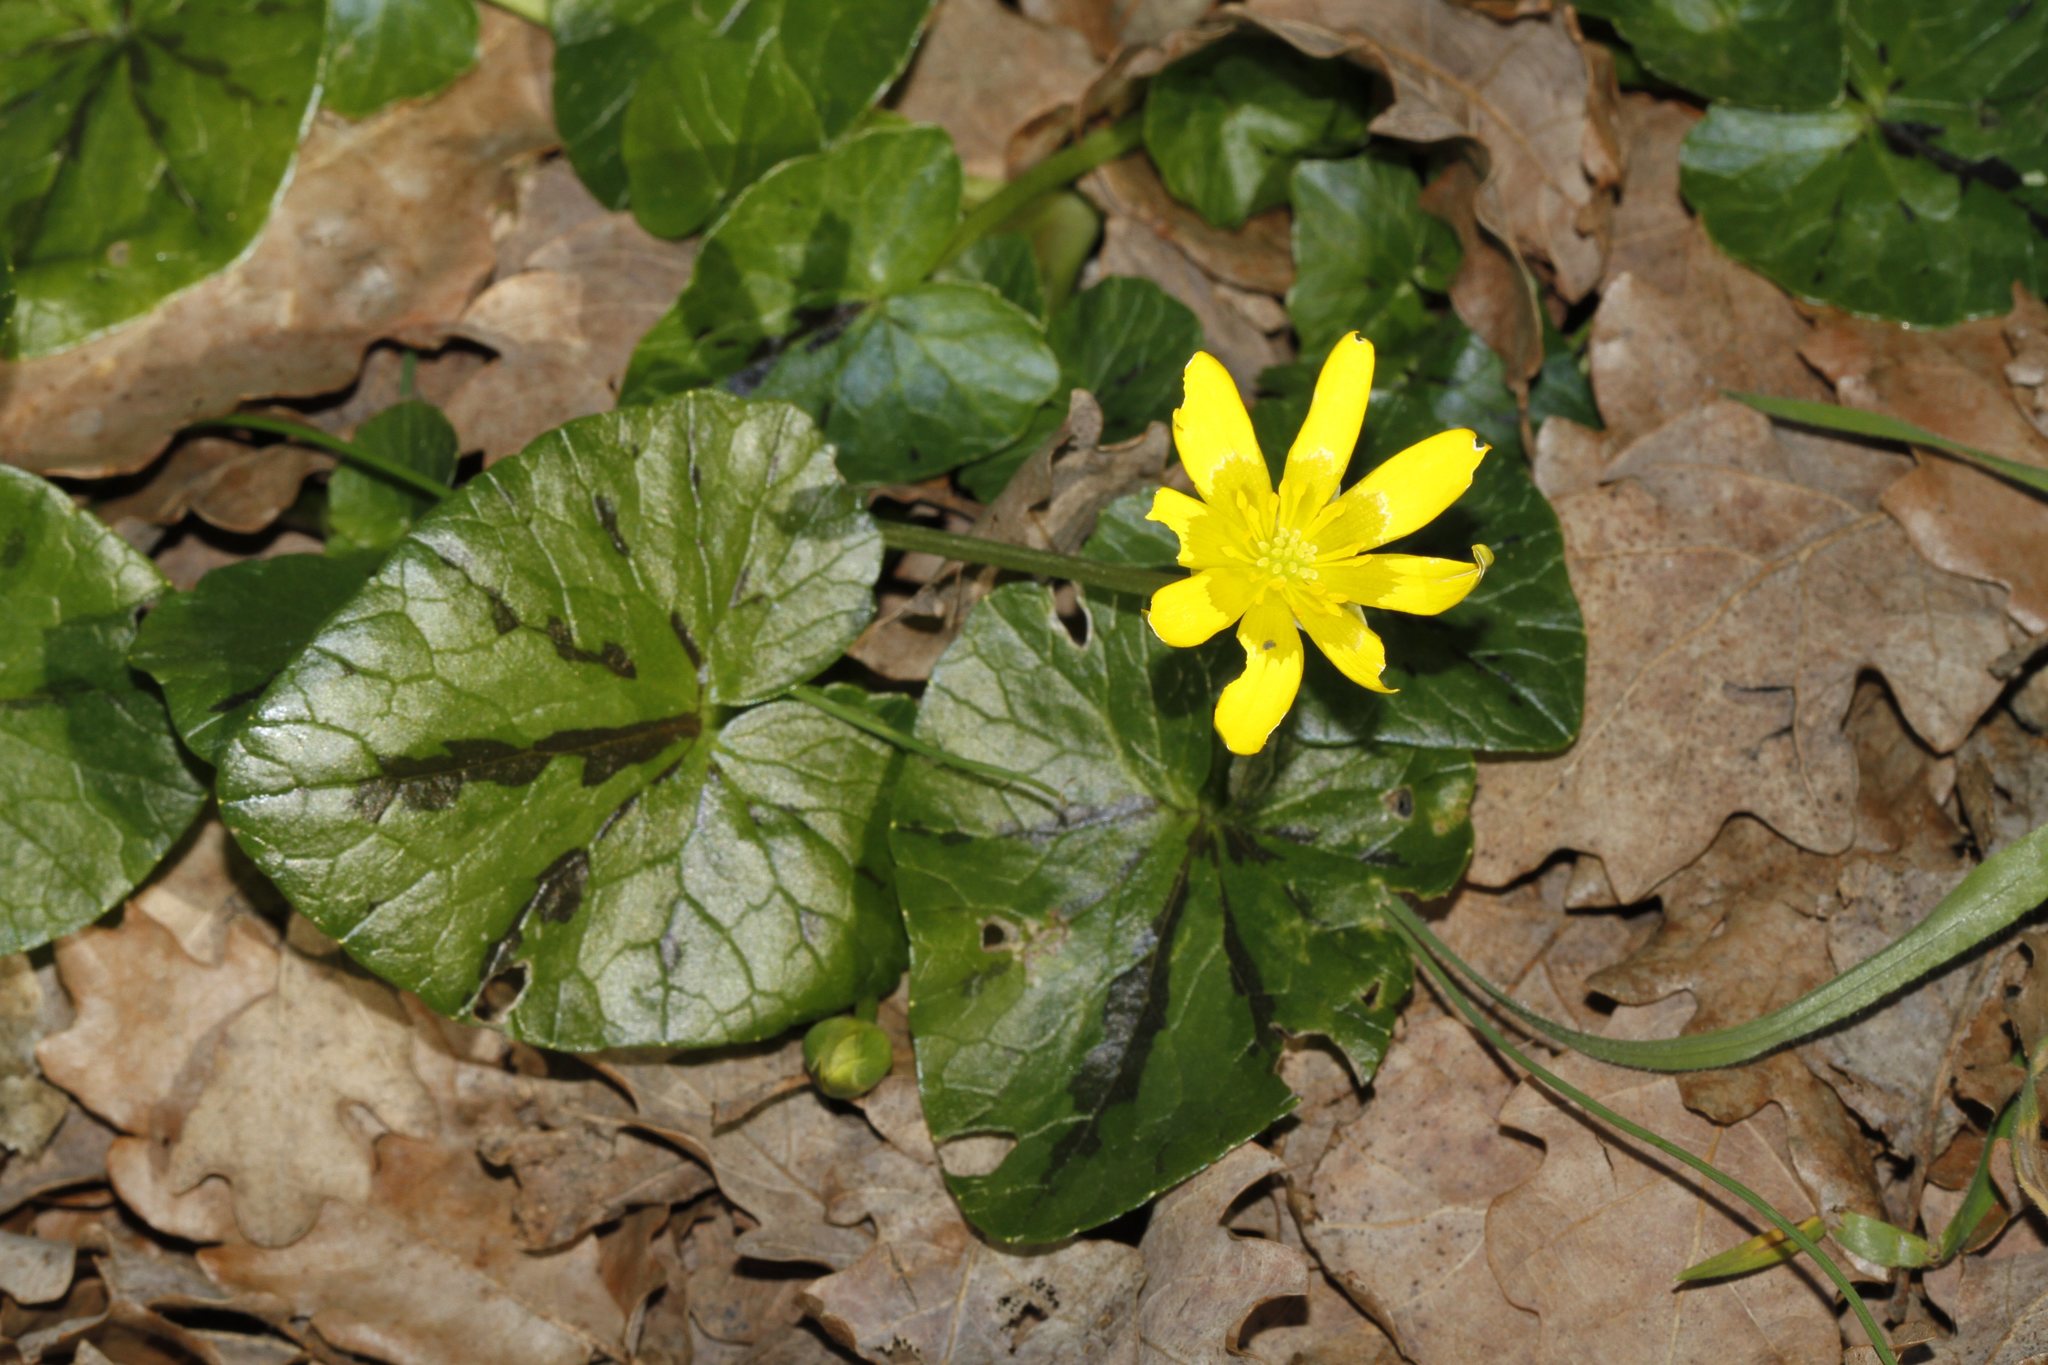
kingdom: Plantae
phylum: Tracheophyta
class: Magnoliopsida
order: Ranunculales
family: Ranunculaceae
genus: Ficaria
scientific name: Ficaria verna
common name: Lesser celandine
